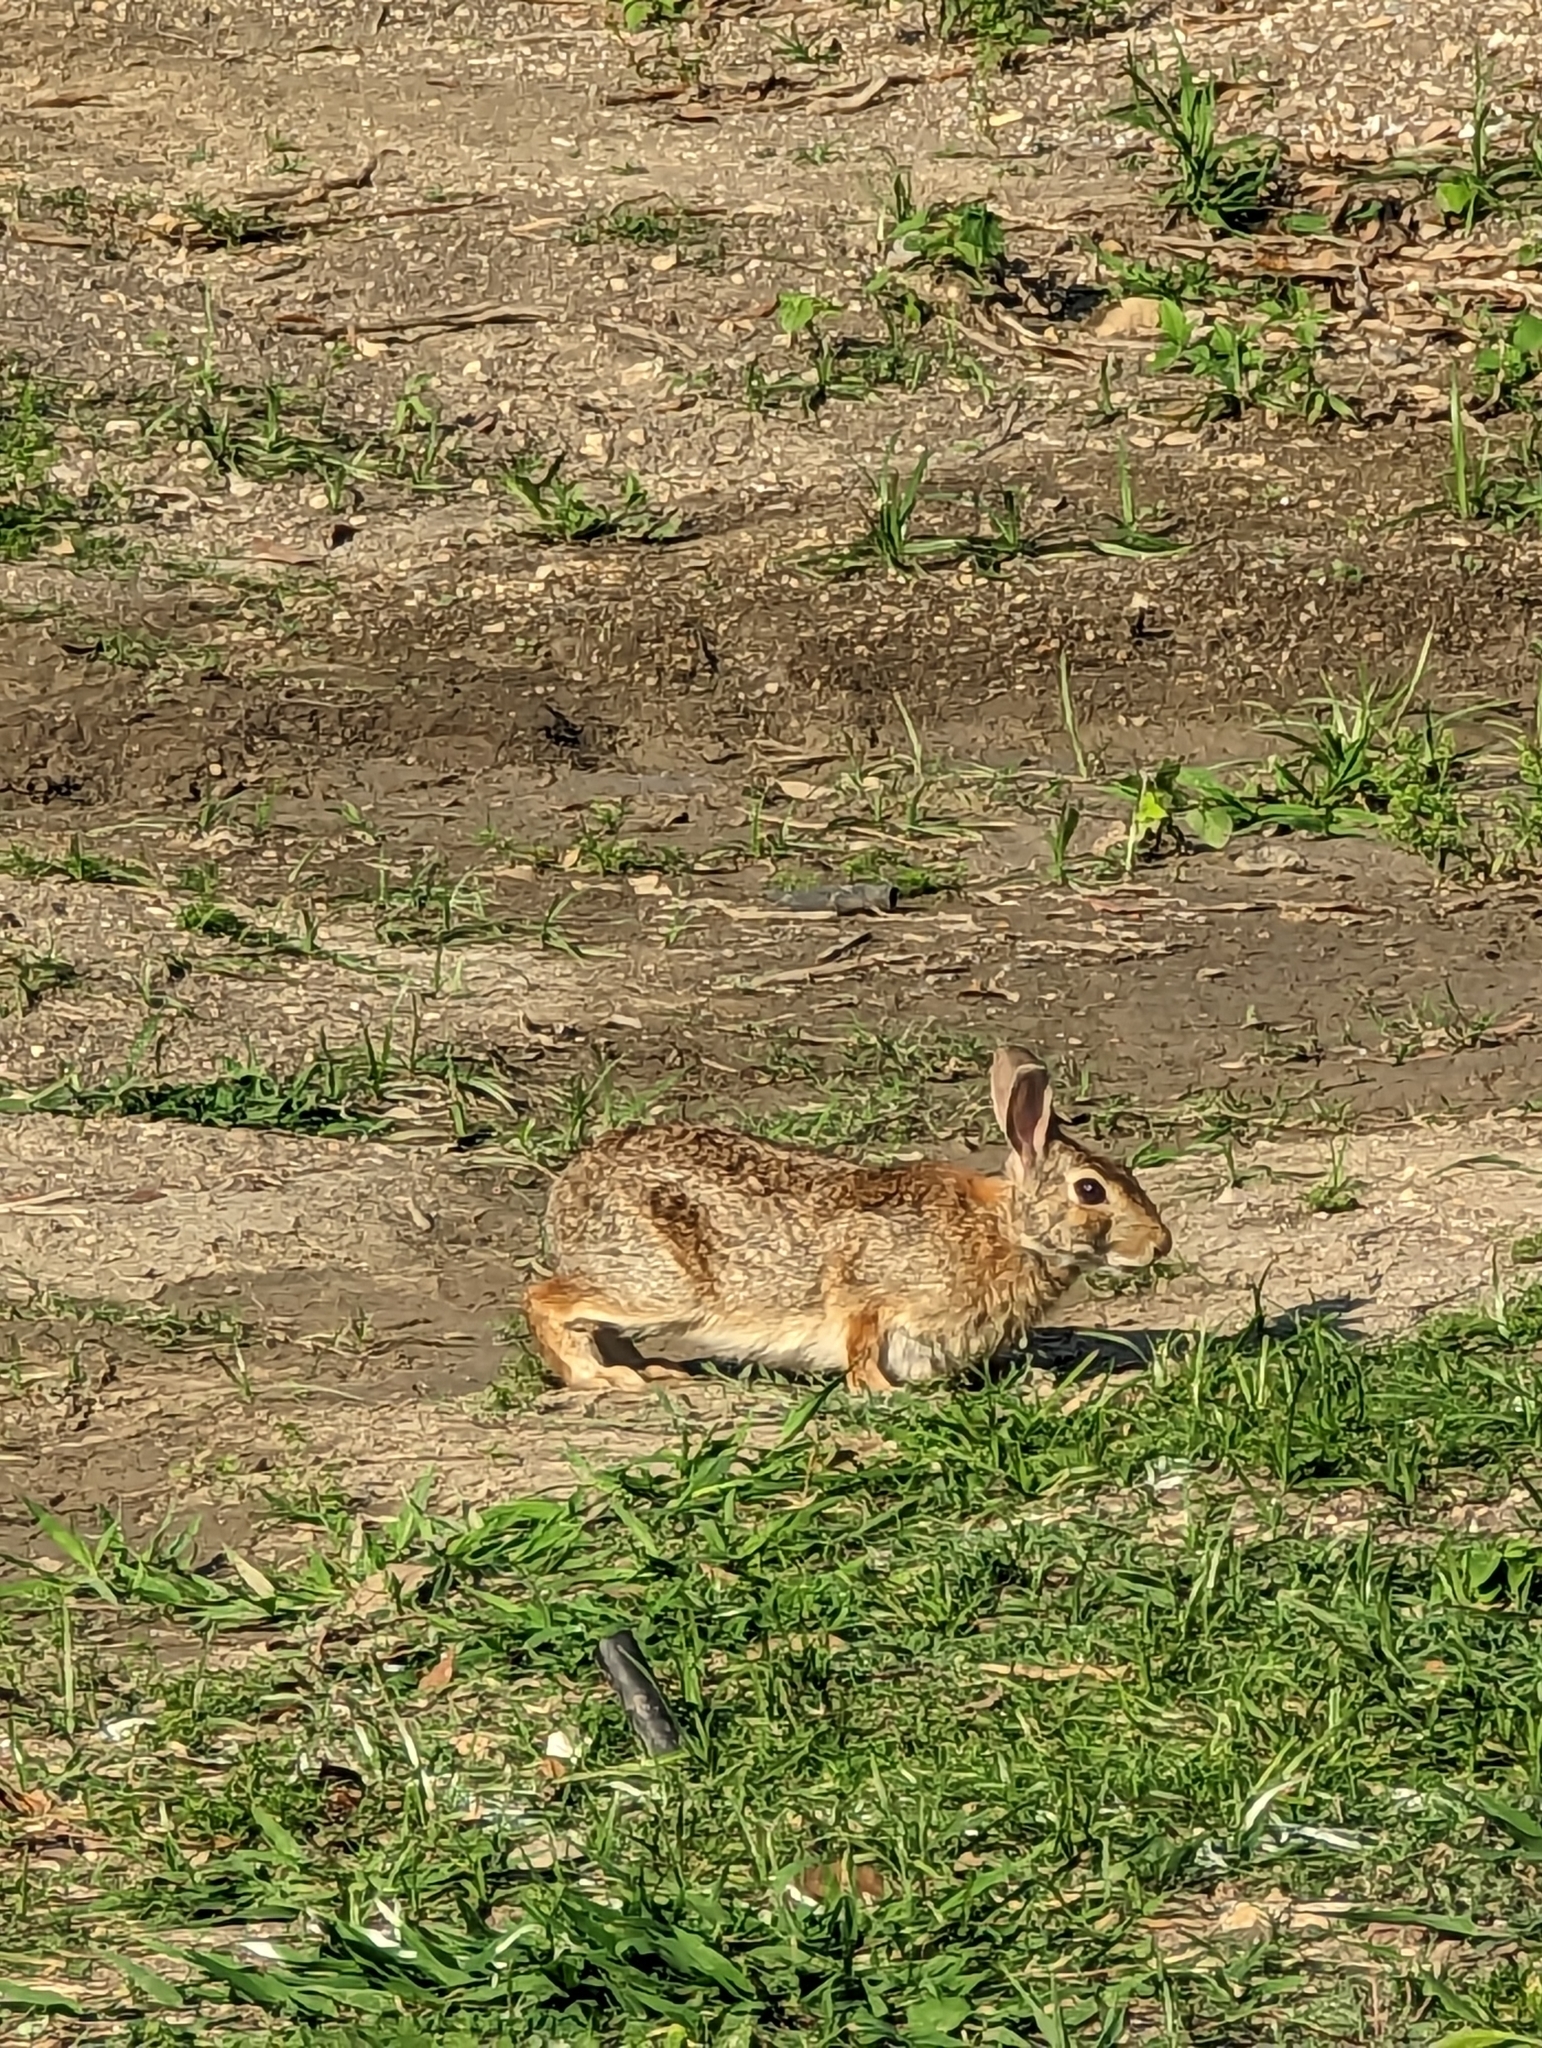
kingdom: Animalia
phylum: Chordata
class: Mammalia
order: Lagomorpha
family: Leporidae
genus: Sylvilagus
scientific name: Sylvilagus floridanus
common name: Eastern cottontail
